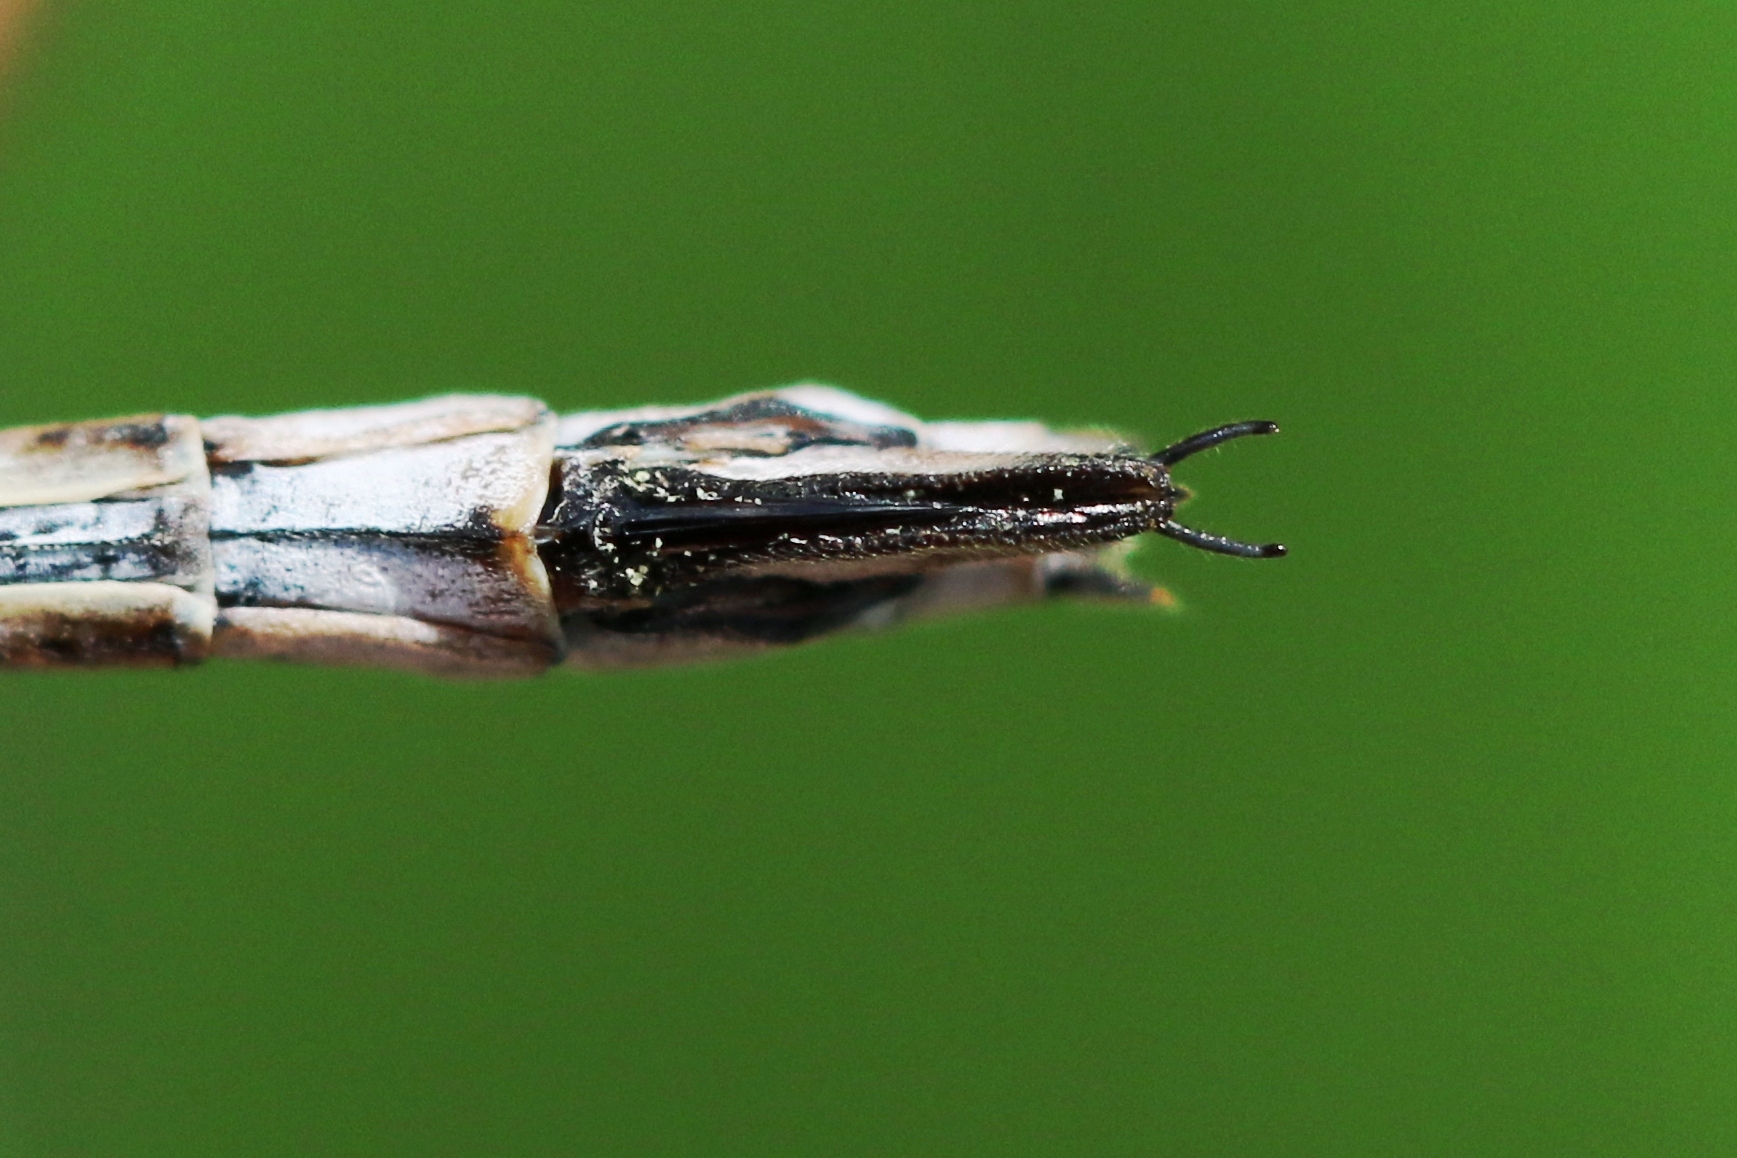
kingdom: Animalia
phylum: Arthropoda
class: Insecta
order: Odonata
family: Lestidae
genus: Lestes
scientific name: Lestes forcipatus
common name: Sweetflag spreadwing
